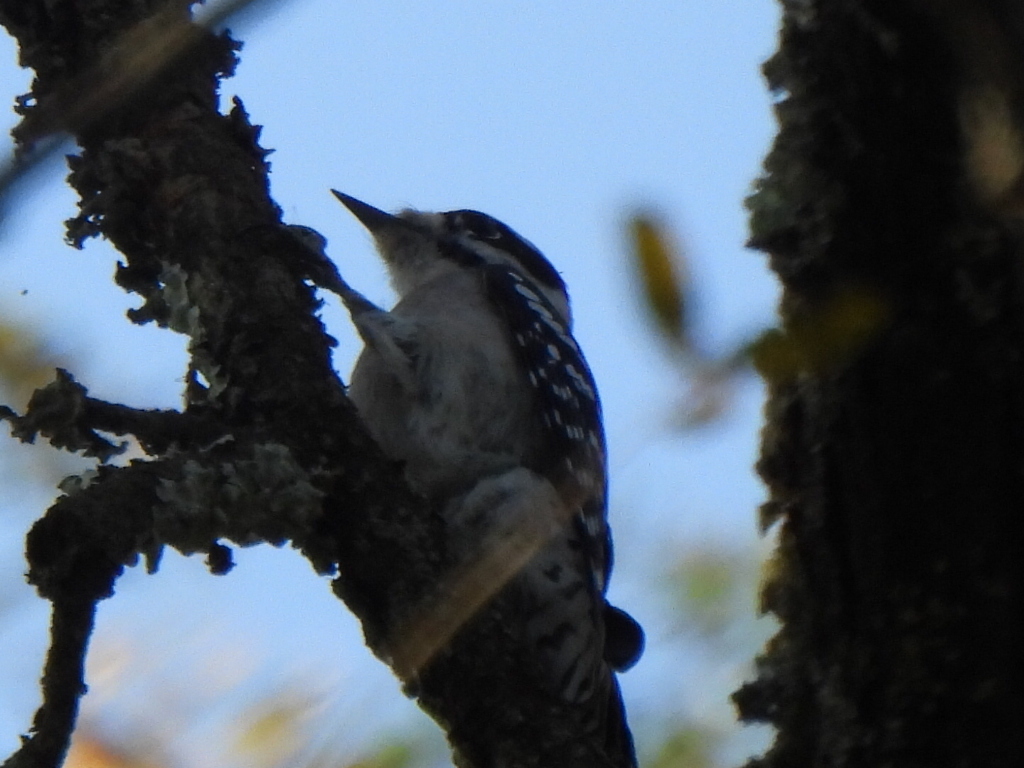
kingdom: Animalia
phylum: Chordata
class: Aves
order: Piciformes
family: Picidae
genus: Dryobates
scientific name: Dryobates pubescens
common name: Downy woodpecker
